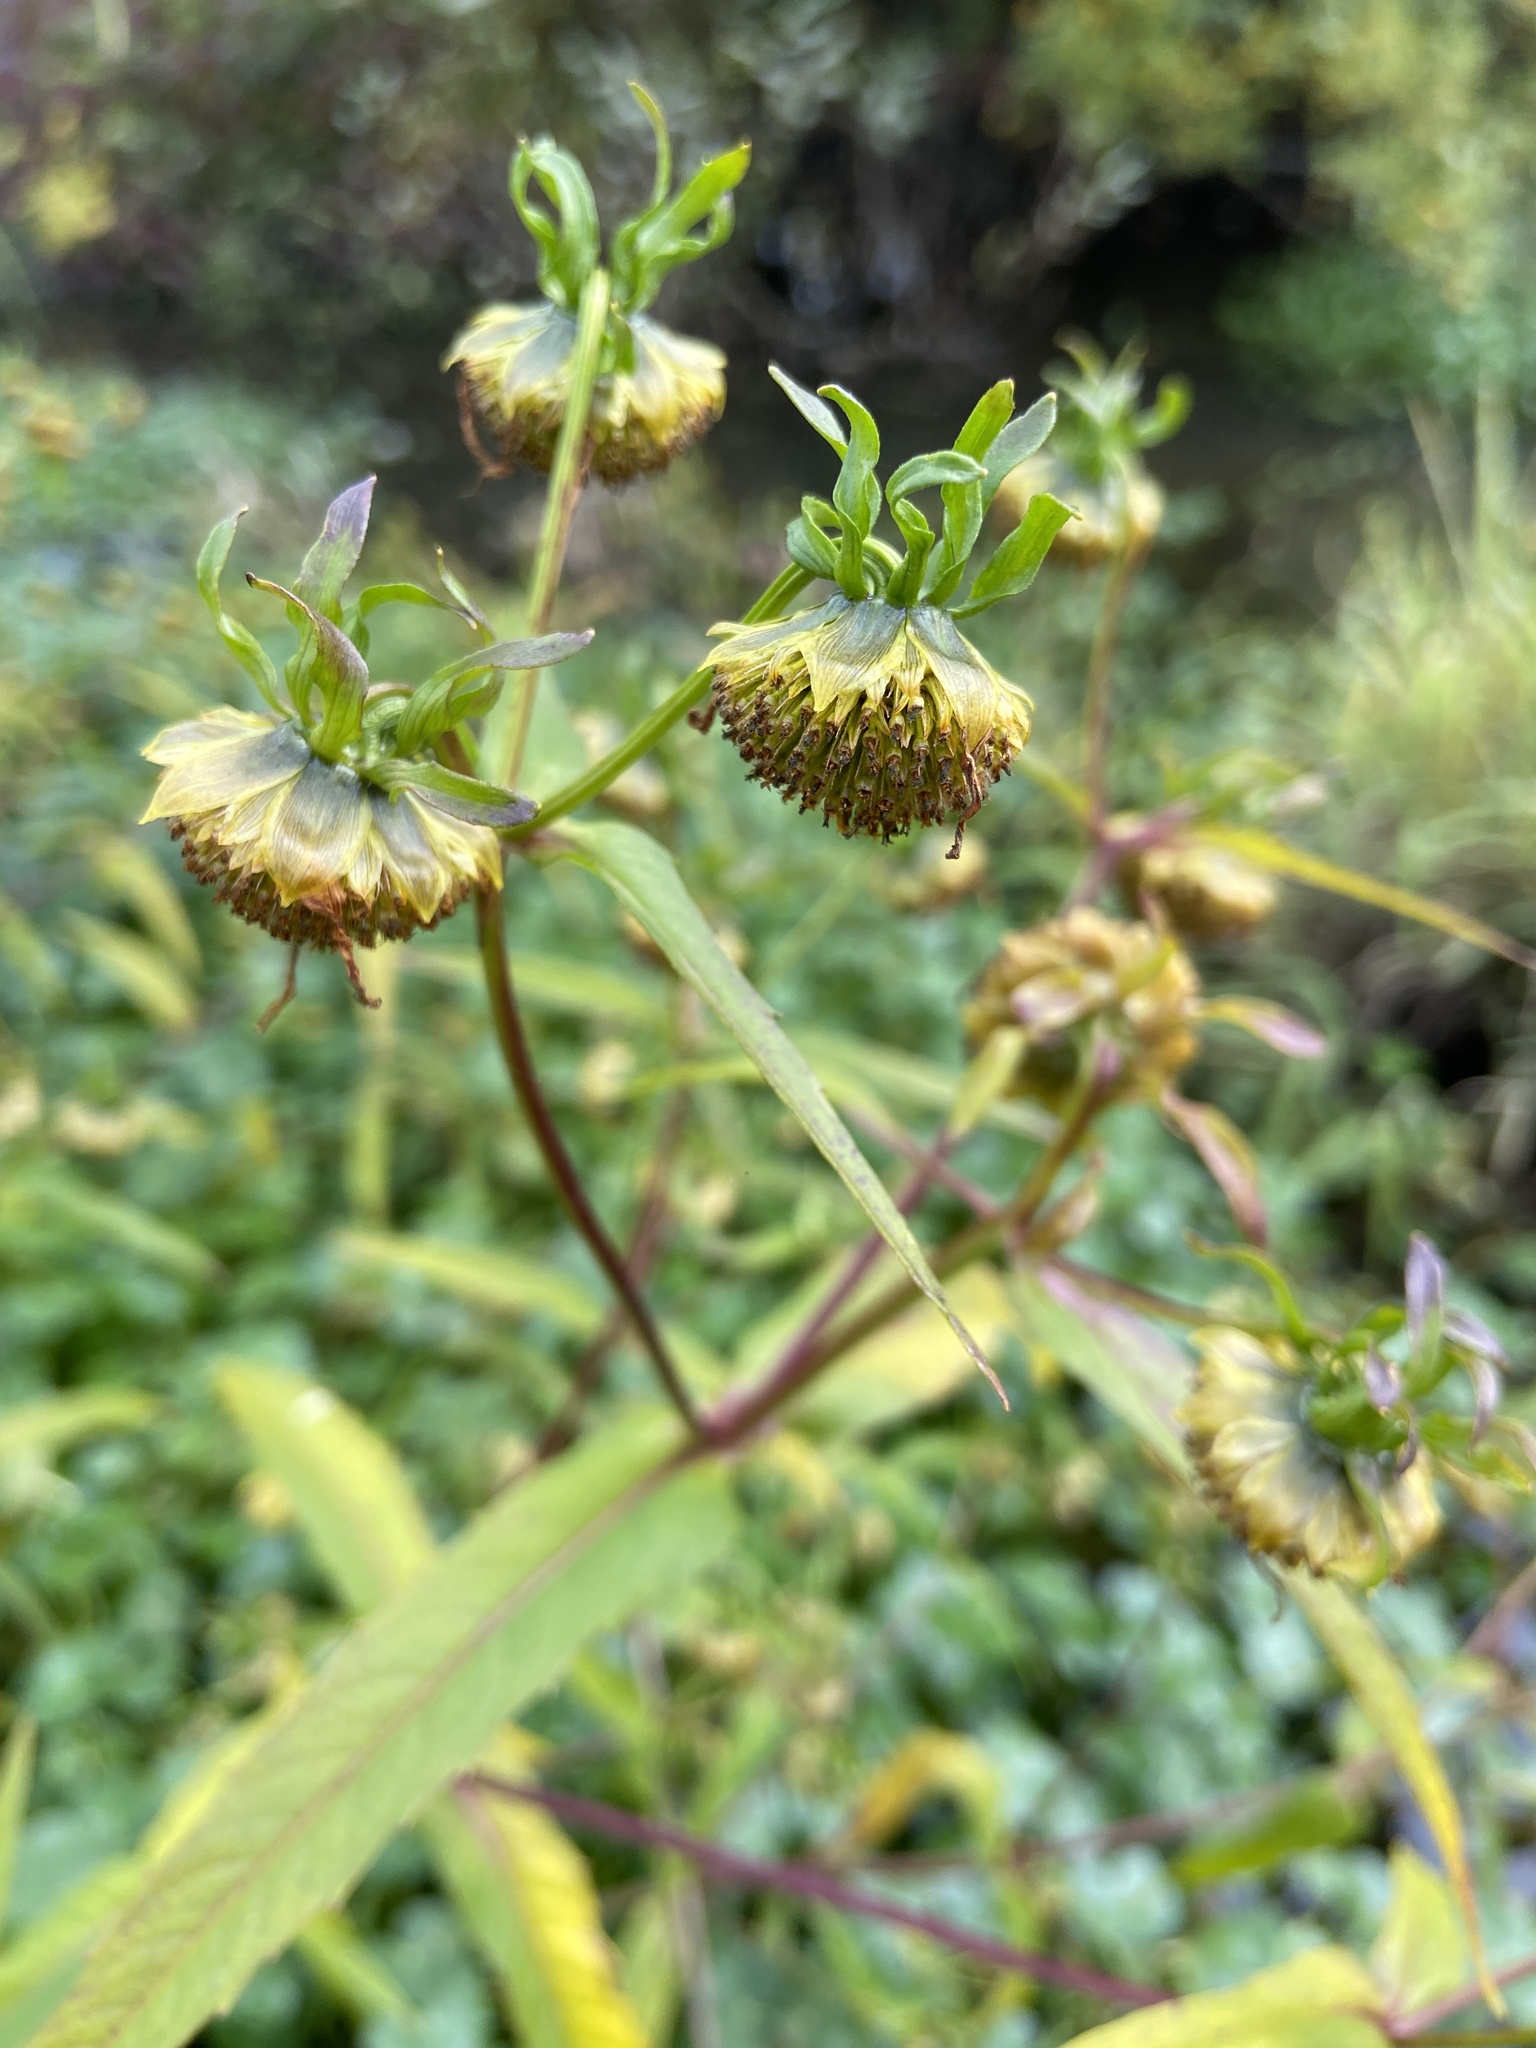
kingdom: Plantae
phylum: Tracheophyta
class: Magnoliopsida
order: Asterales
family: Asteraceae
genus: Bidens
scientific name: Bidens cernua
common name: Nodding bur-marigold
